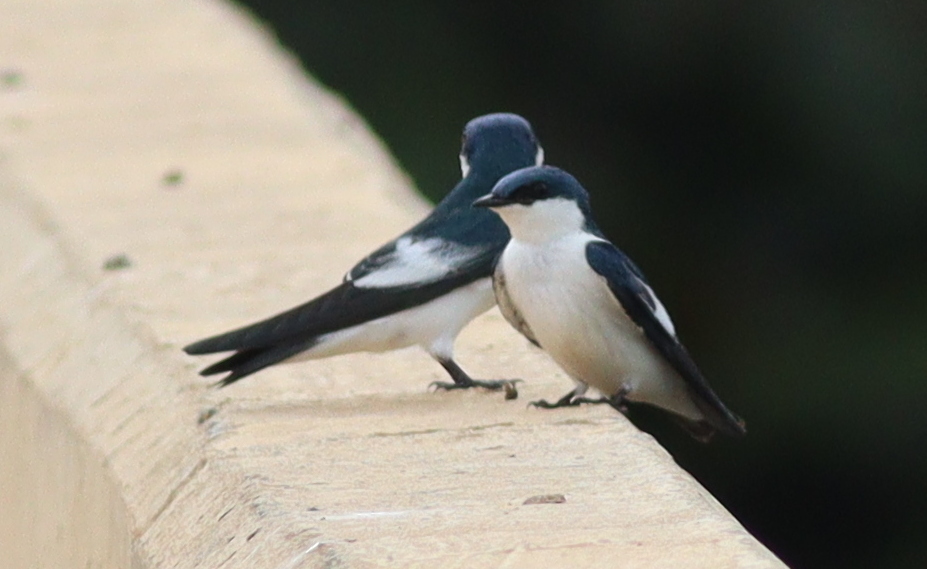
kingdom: Animalia
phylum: Chordata
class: Aves
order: Passeriformes
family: Hirundinidae
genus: Tachycineta
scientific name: Tachycineta albiventer
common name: White-winged swallow
